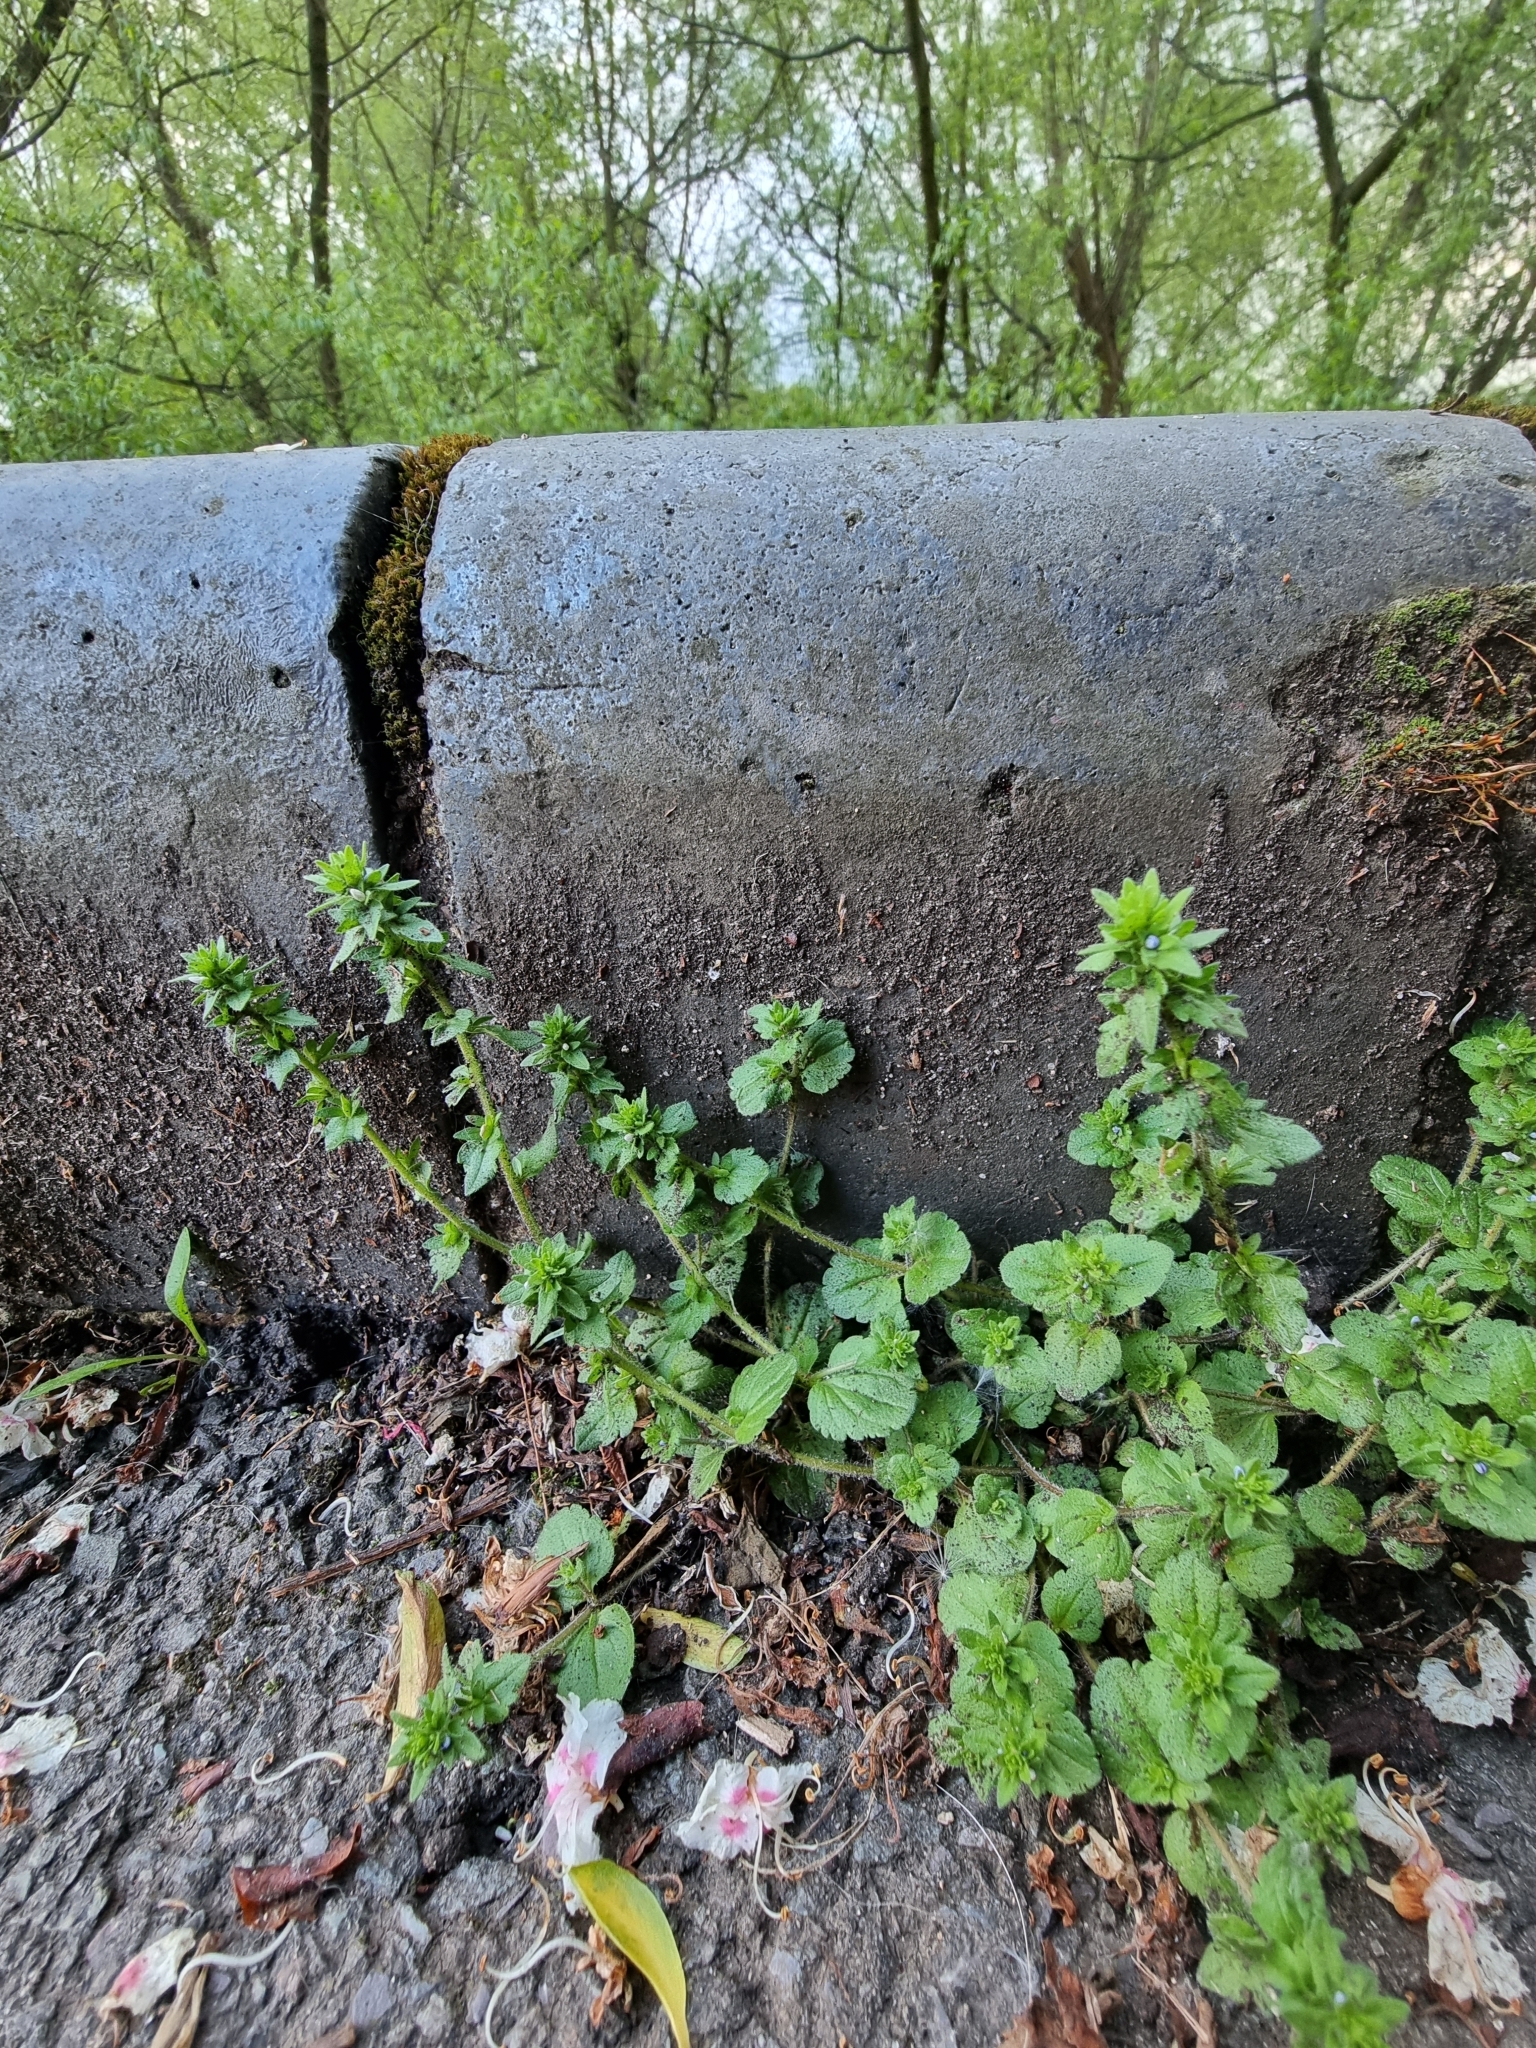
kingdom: Plantae
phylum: Tracheophyta
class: Magnoliopsida
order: Lamiales
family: Plantaginaceae
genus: Veronica
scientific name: Veronica arvensis
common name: Corn speedwell
